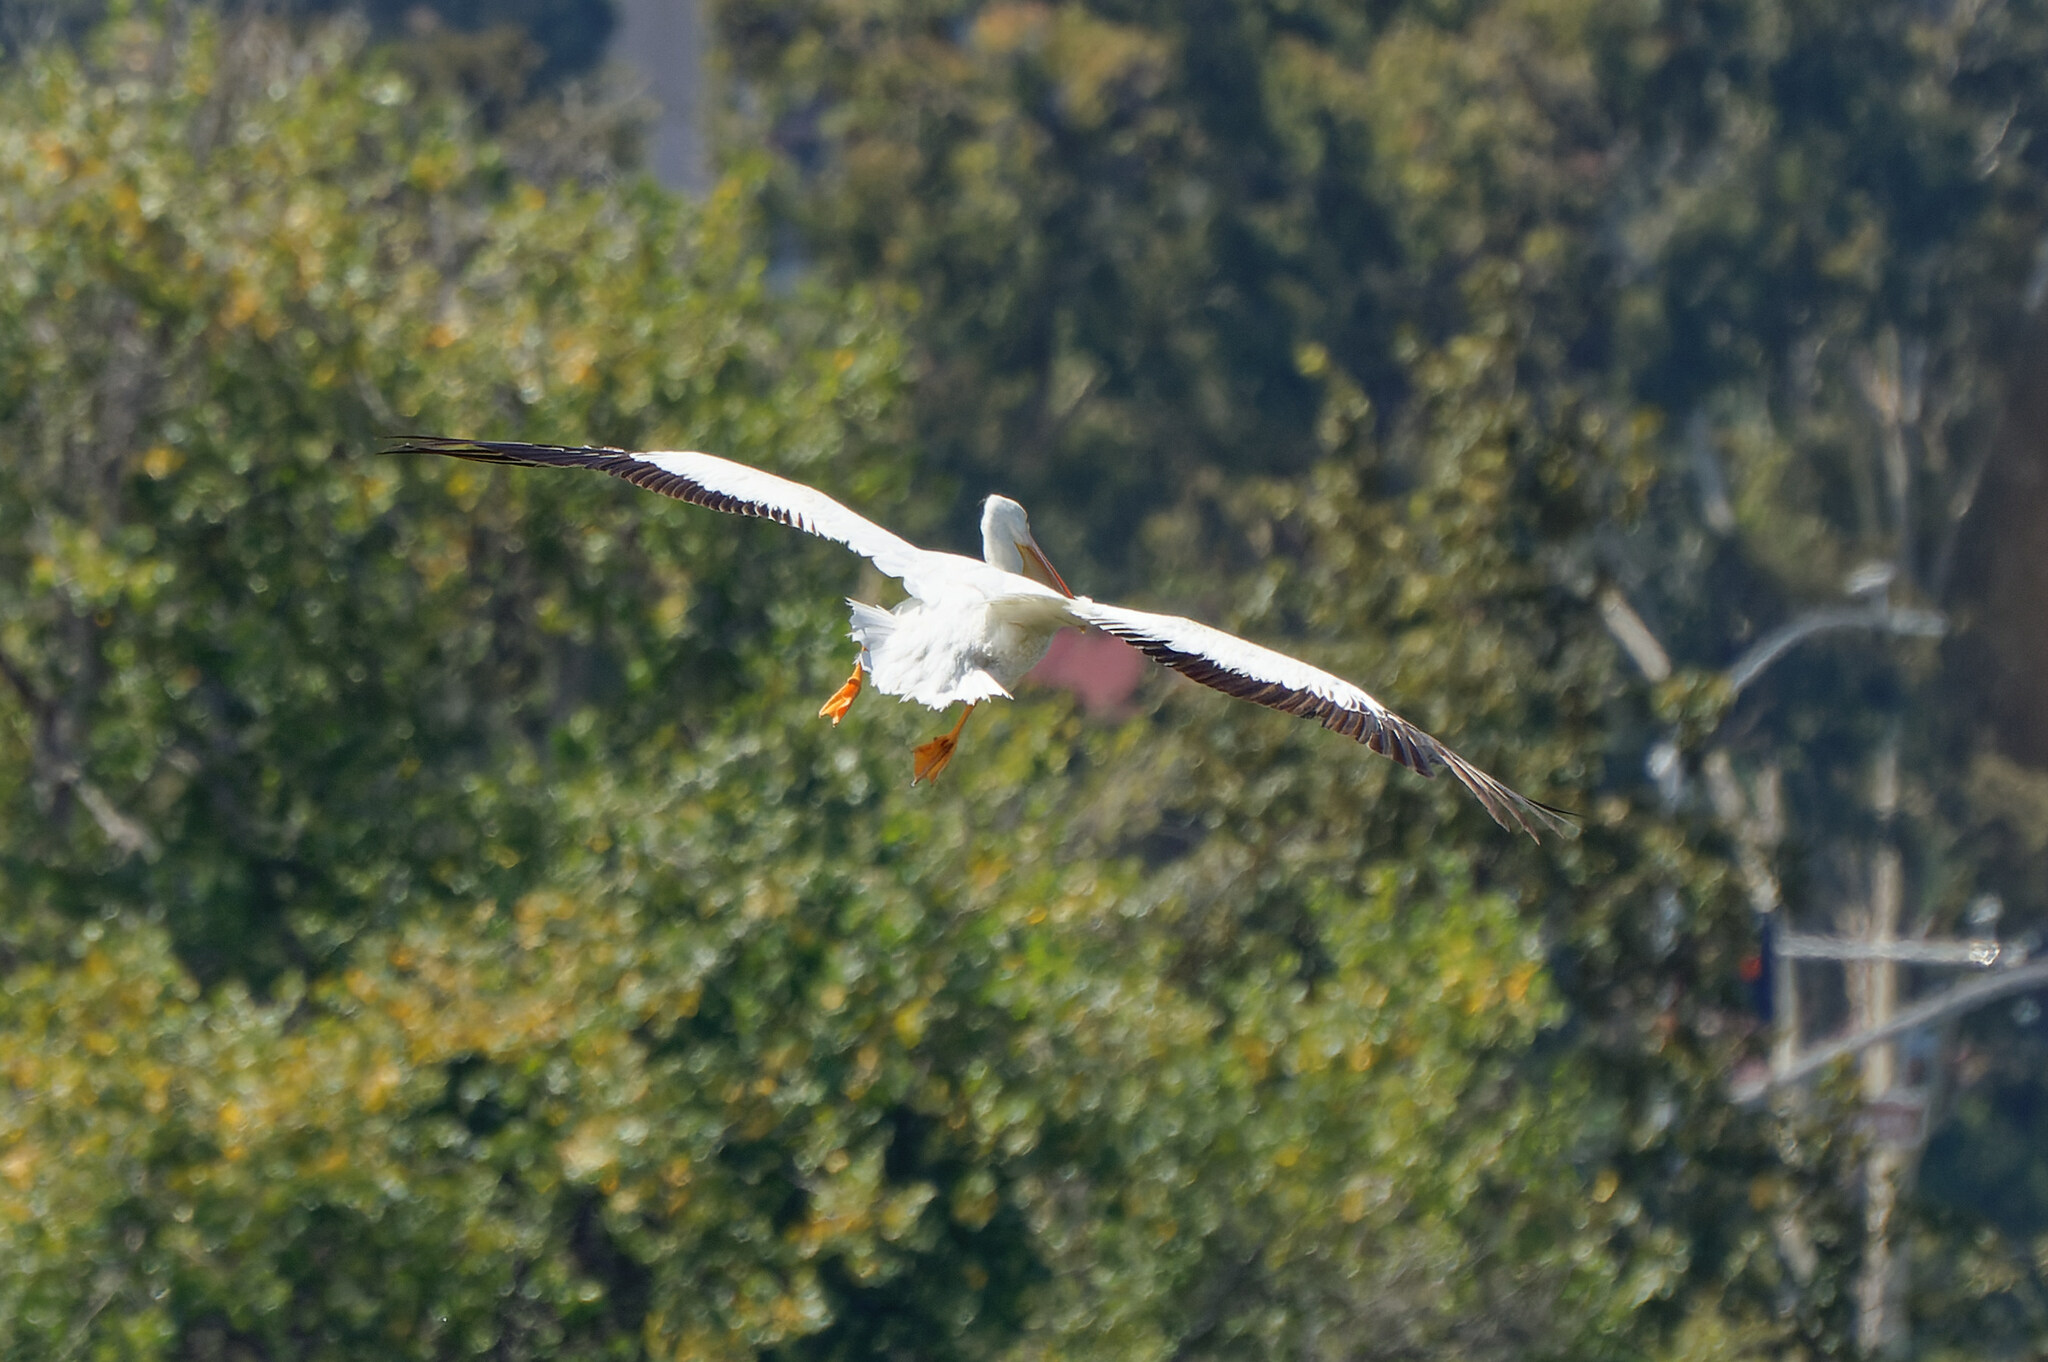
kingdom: Animalia
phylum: Chordata
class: Aves
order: Pelecaniformes
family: Pelecanidae
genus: Pelecanus
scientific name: Pelecanus erythrorhynchos
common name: American white pelican
